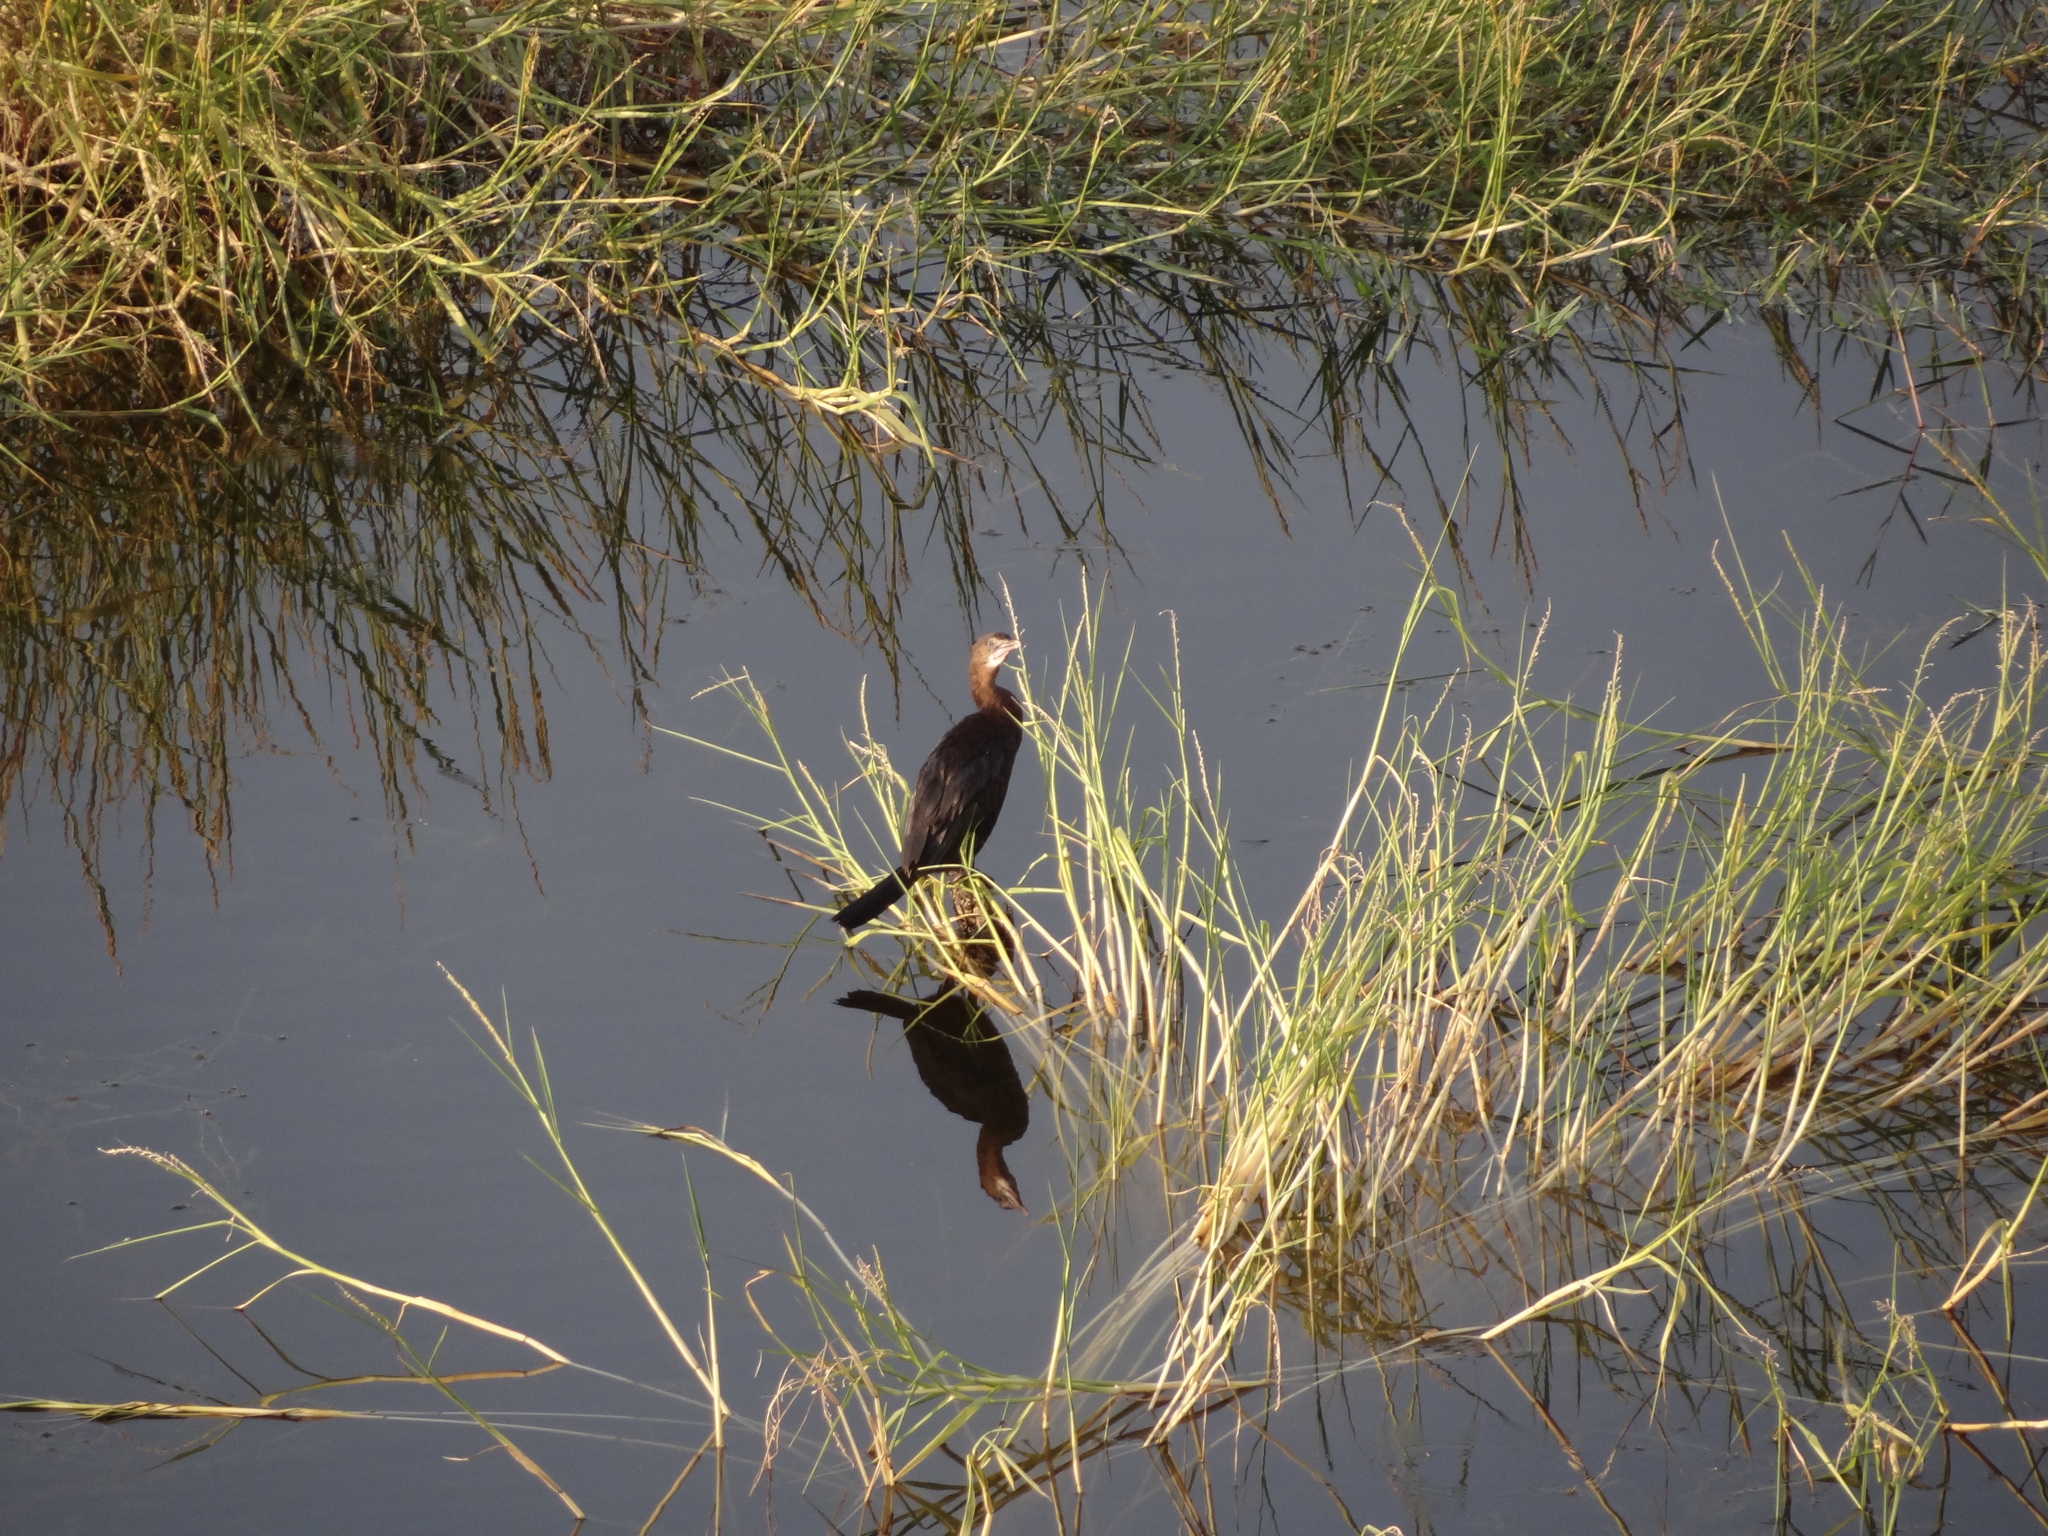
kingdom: Animalia
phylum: Chordata
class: Aves
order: Suliformes
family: Phalacrocoracidae
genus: Microcarbo
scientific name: Microcarbo niger
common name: Little cormorant
